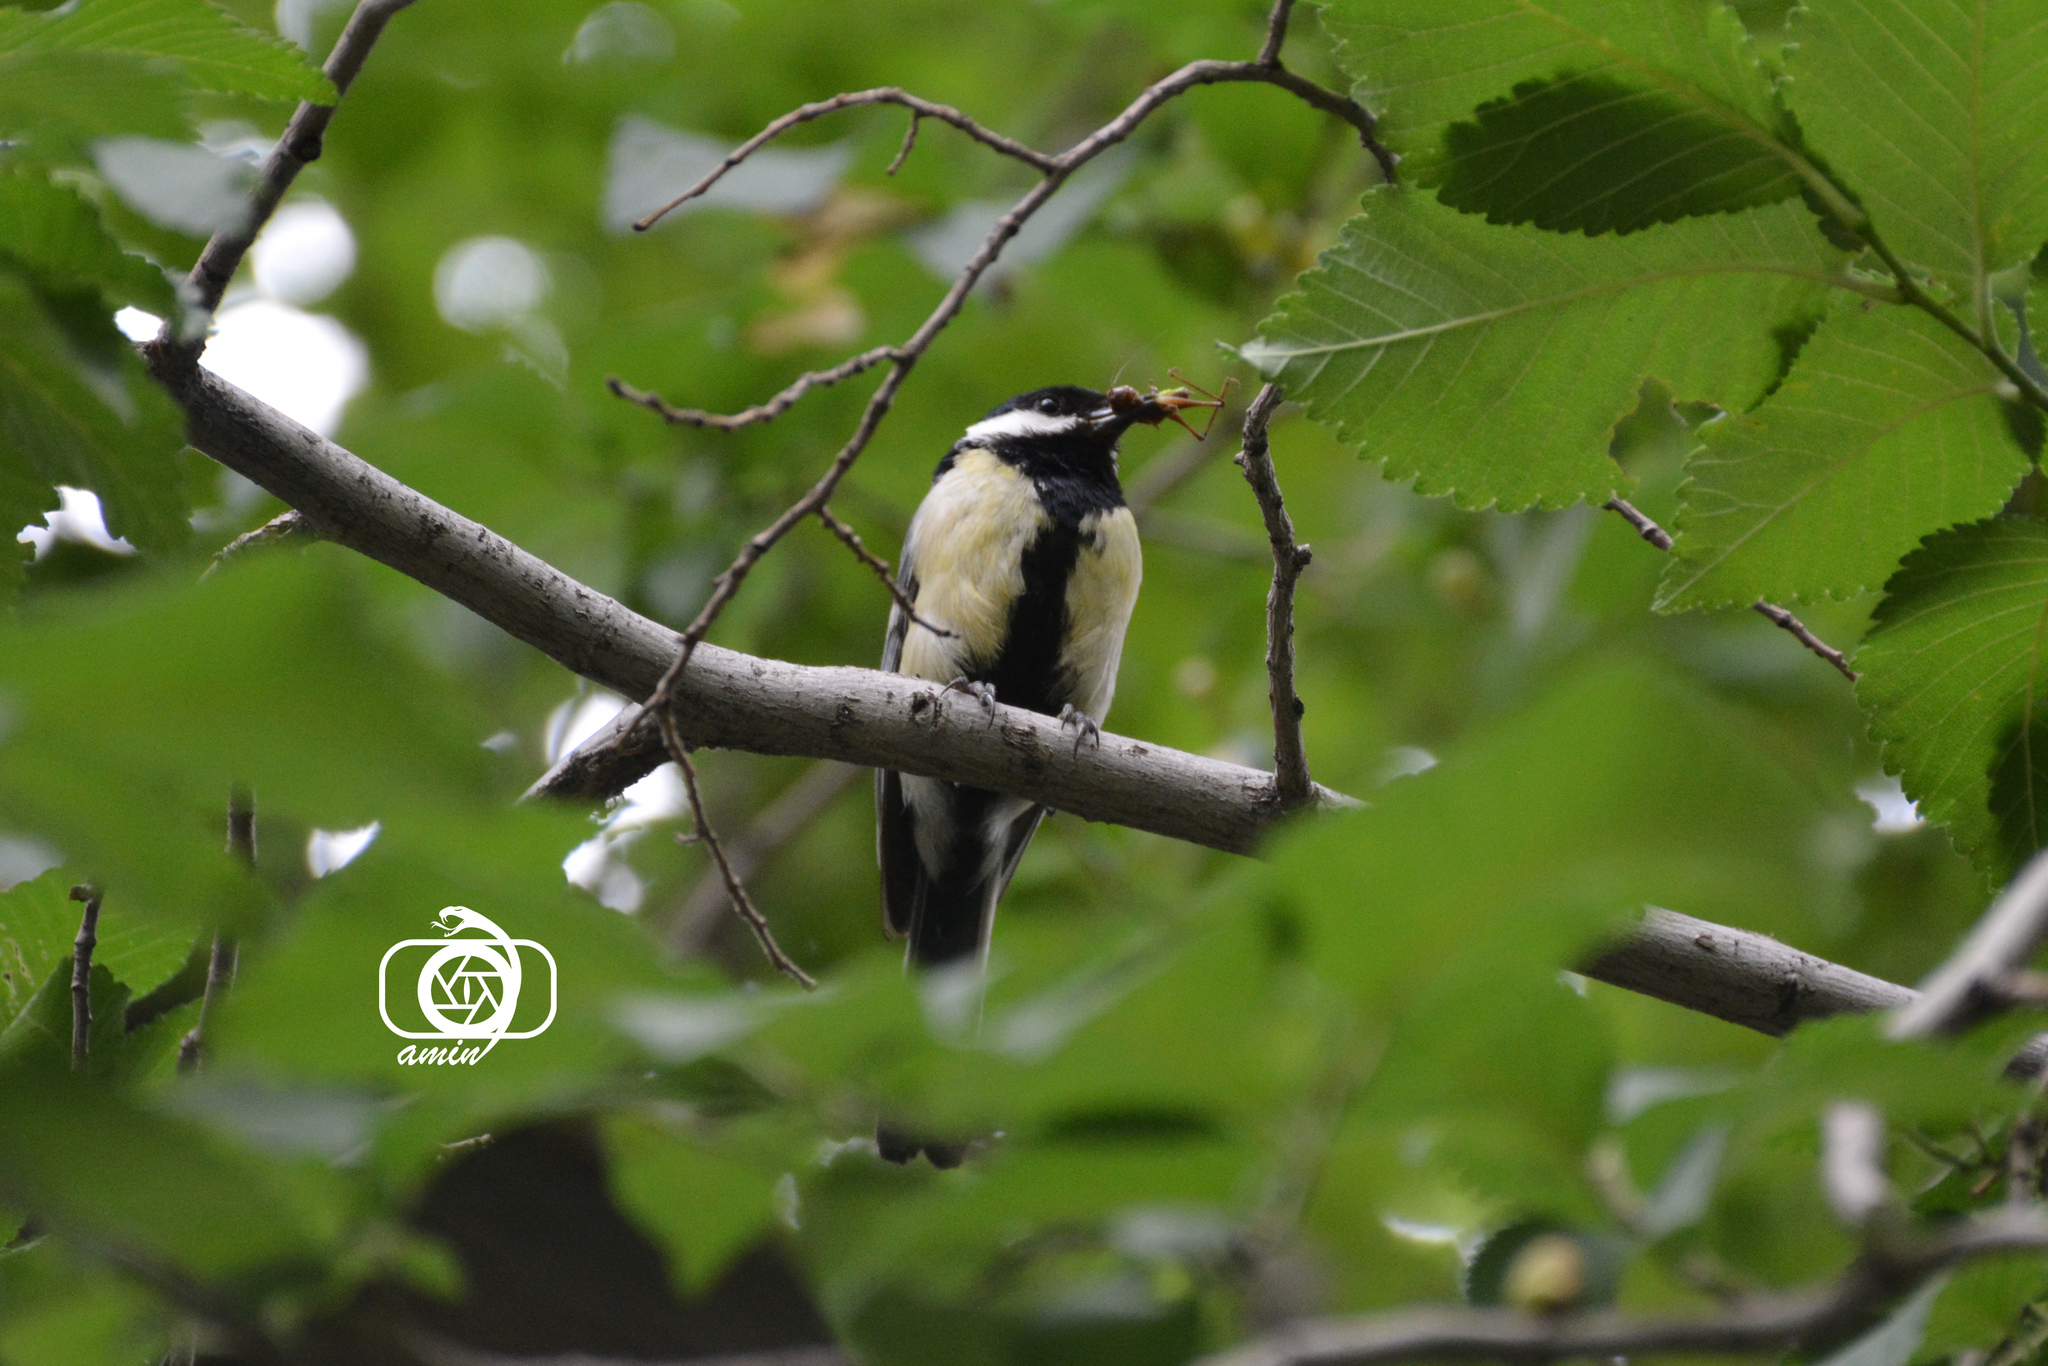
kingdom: Animalia
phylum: Chordata
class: Aves
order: Passeriformes
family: Paridae
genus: Parus
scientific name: Parus major
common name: Great tit
